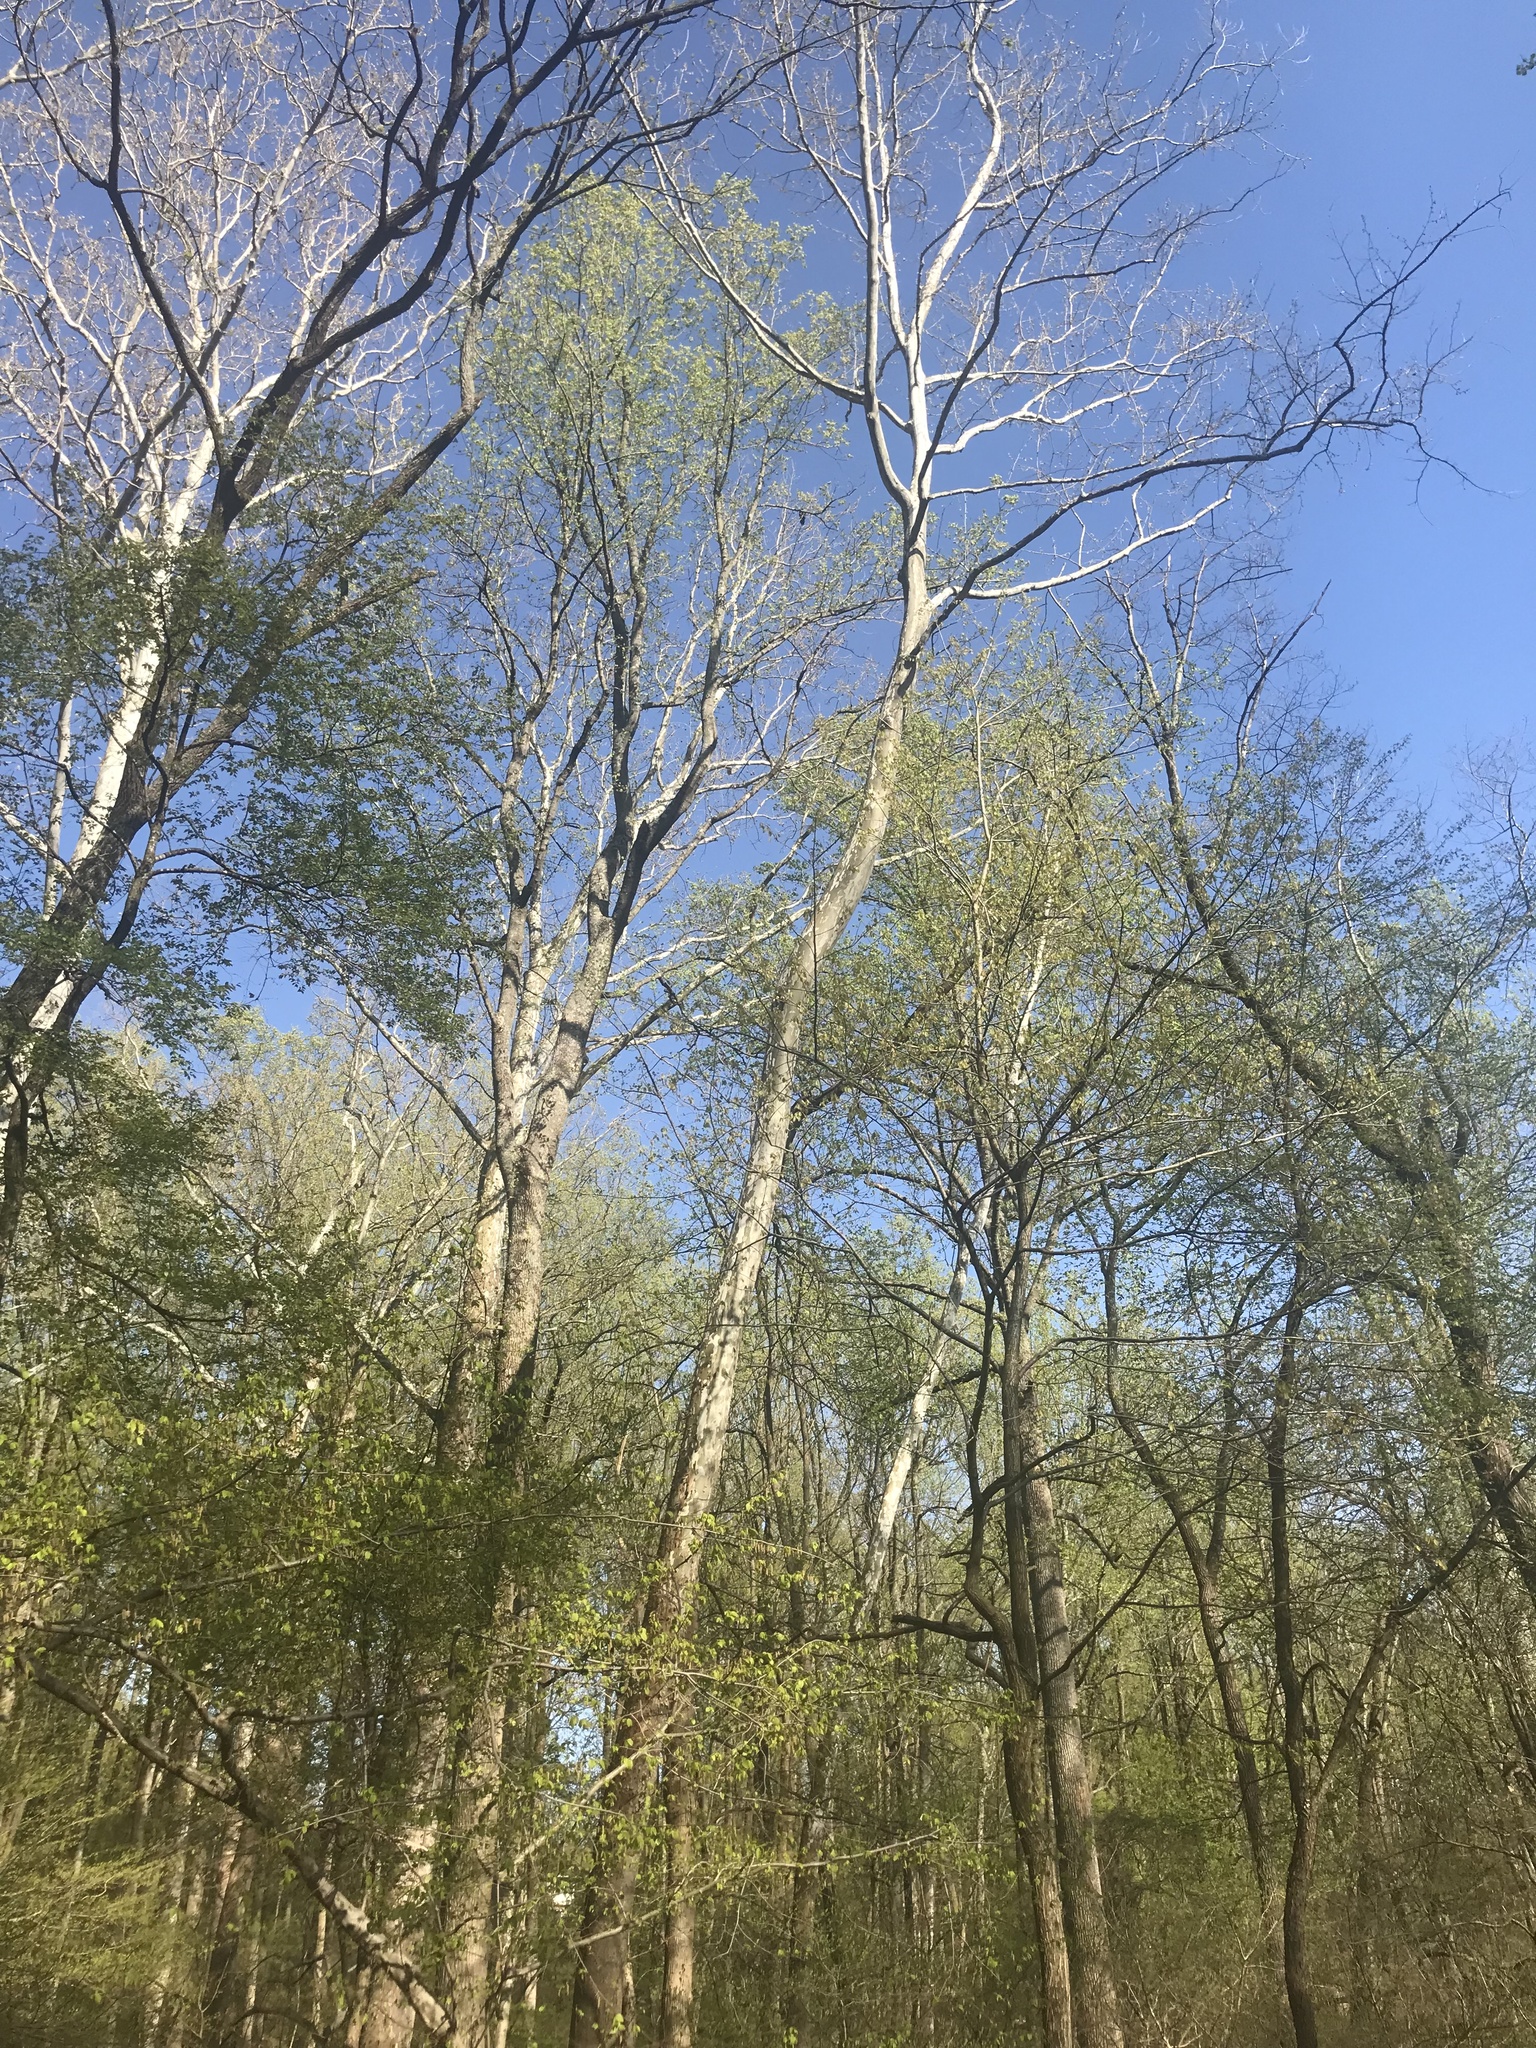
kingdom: Plantae
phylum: Tracheophyta
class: Magnoliopsida
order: Proteales
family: Platanaceae
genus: Platanus
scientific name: Platanus occidentalis
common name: American sycamore
